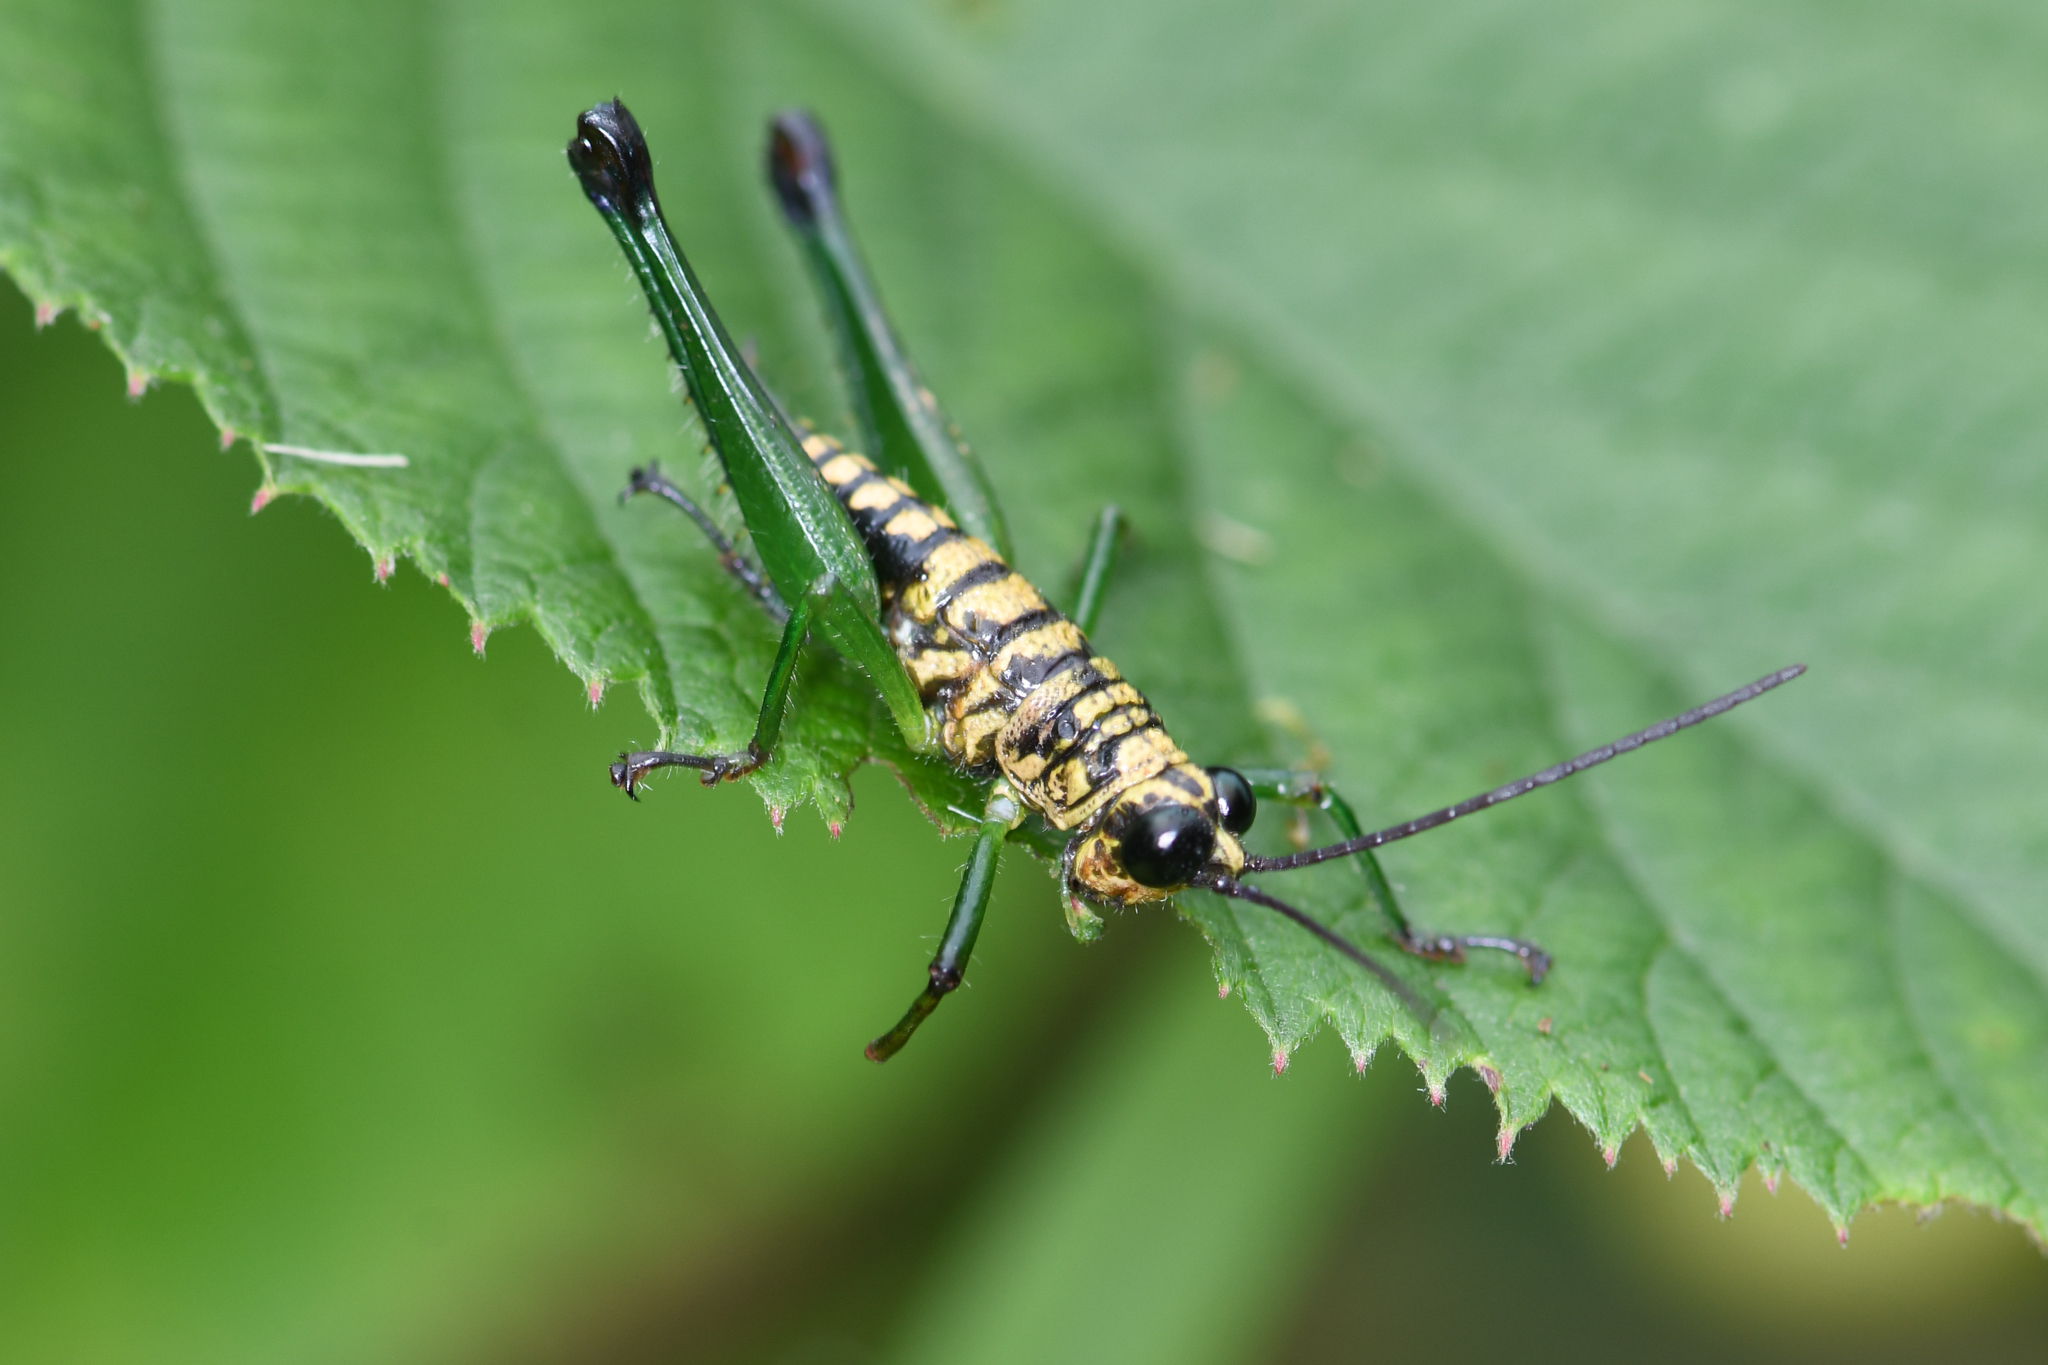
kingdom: Animalia
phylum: Arthropoda
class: Insecta
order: Orthoptera
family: Acrididae
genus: Scirtopaon
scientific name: Scirtopaon dorsatus
